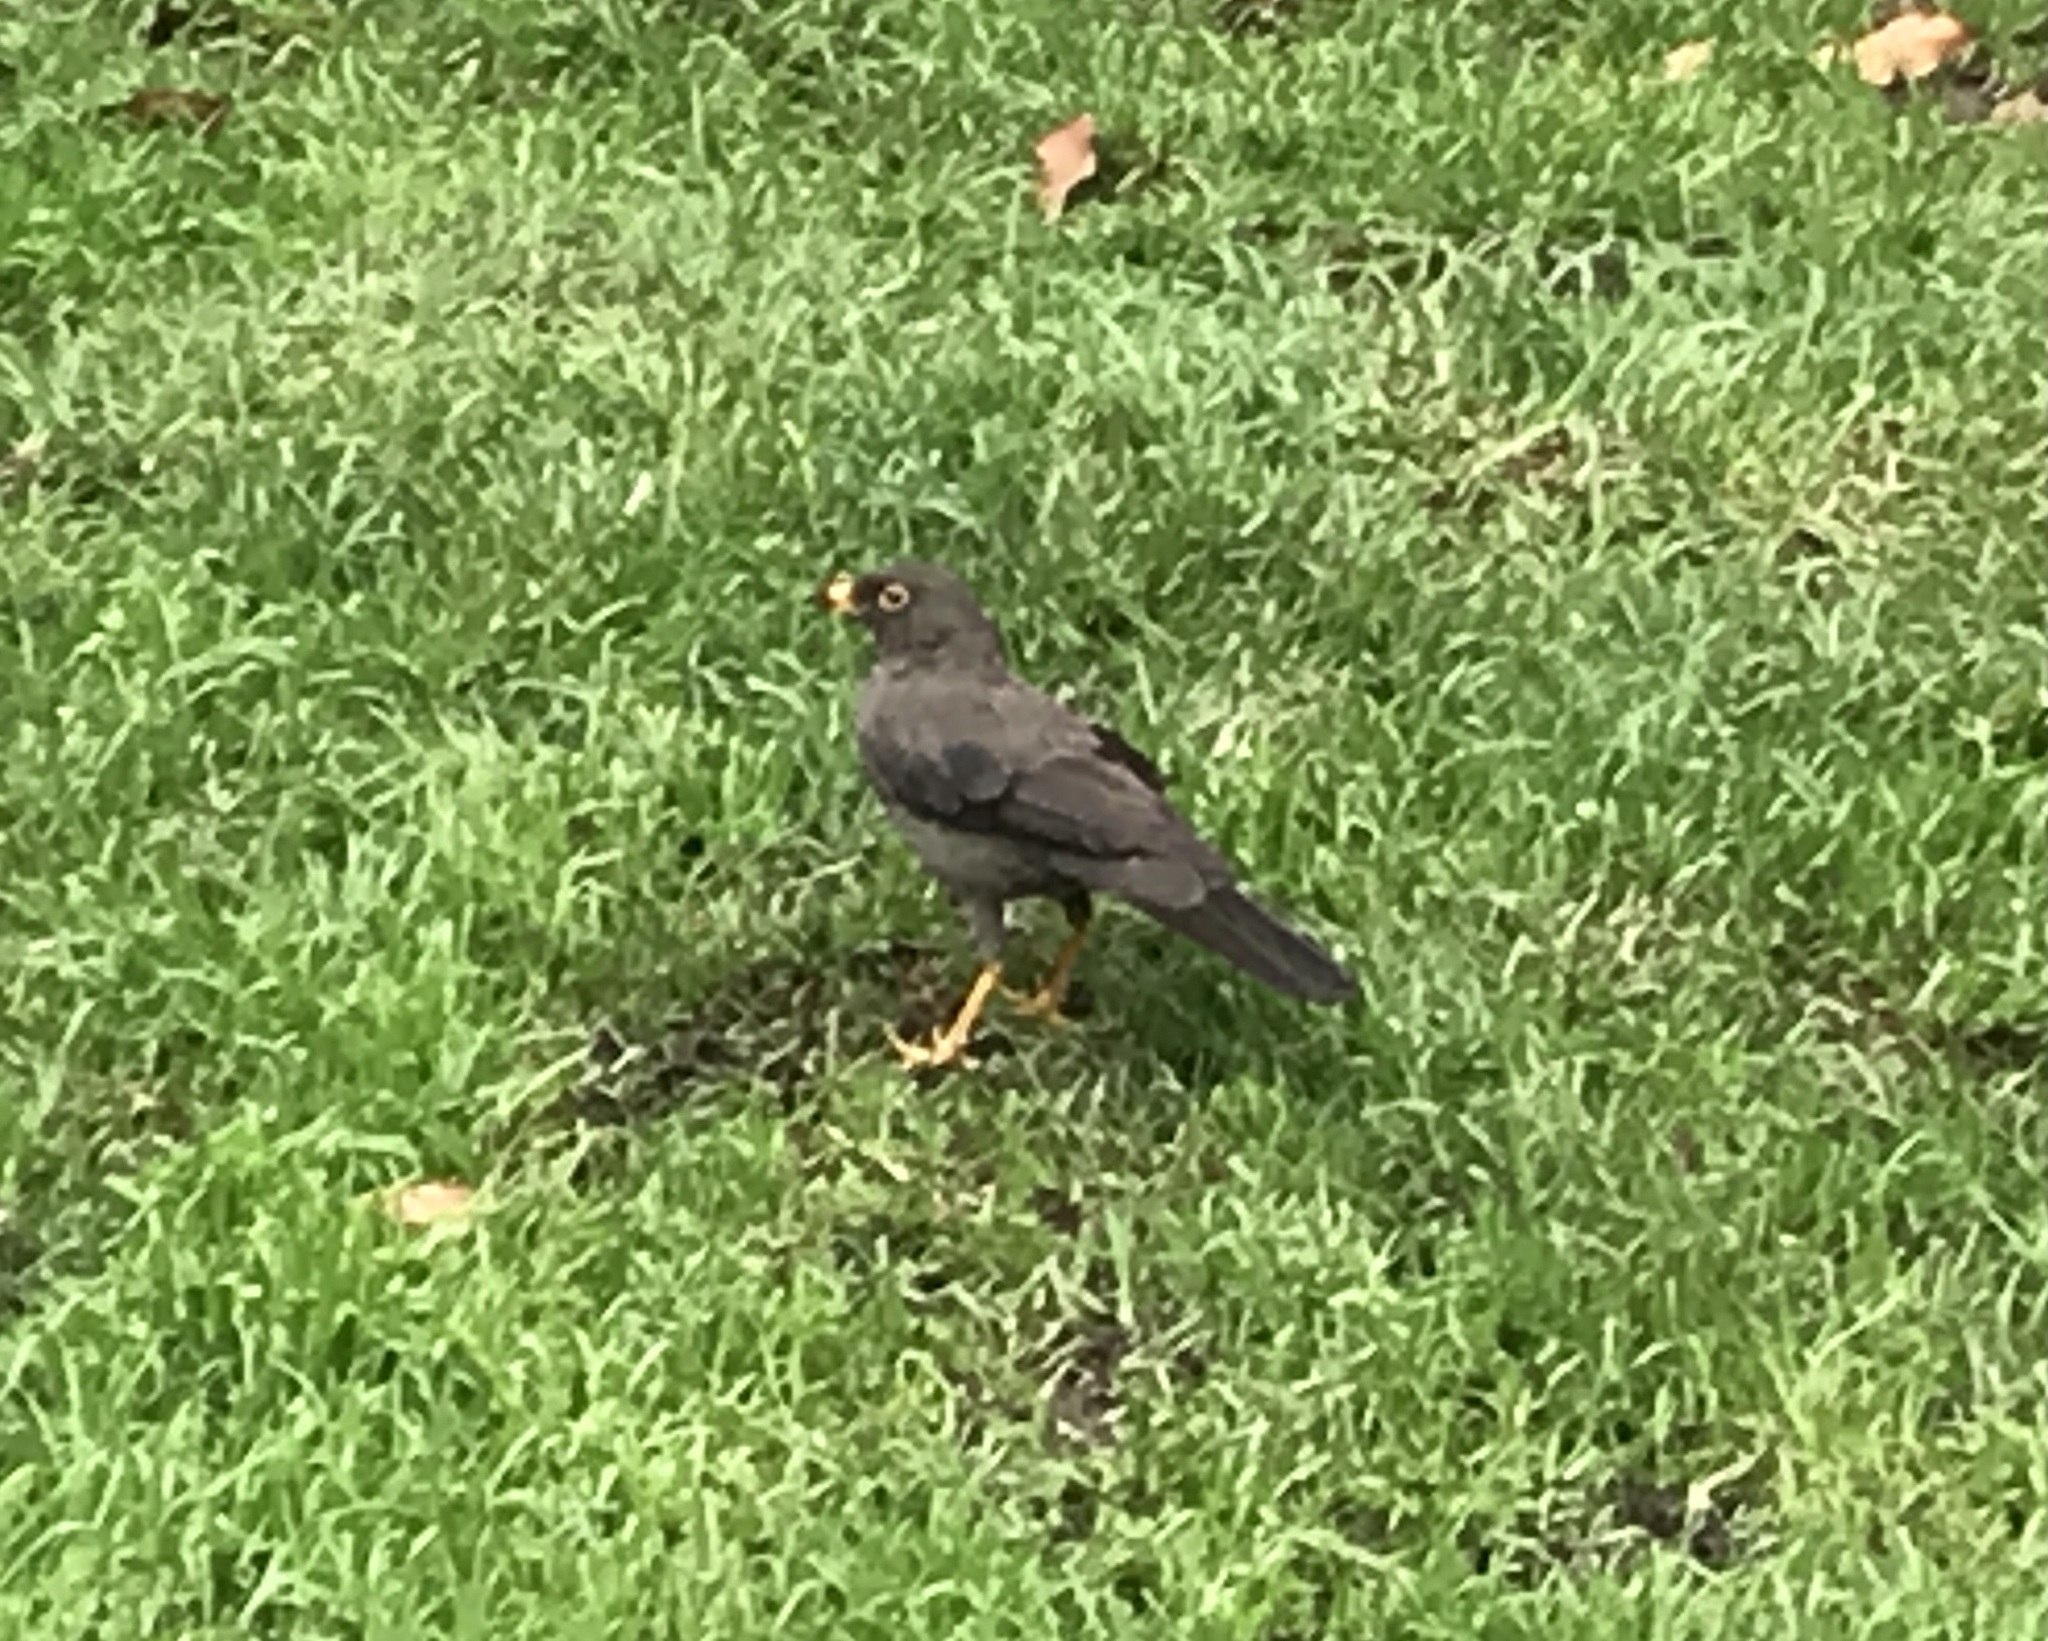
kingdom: Animalia
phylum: Chordata
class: Aves
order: Passeriformes
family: Turdidae
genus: Turdus
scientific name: Turdus fuscater
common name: Great thrush
